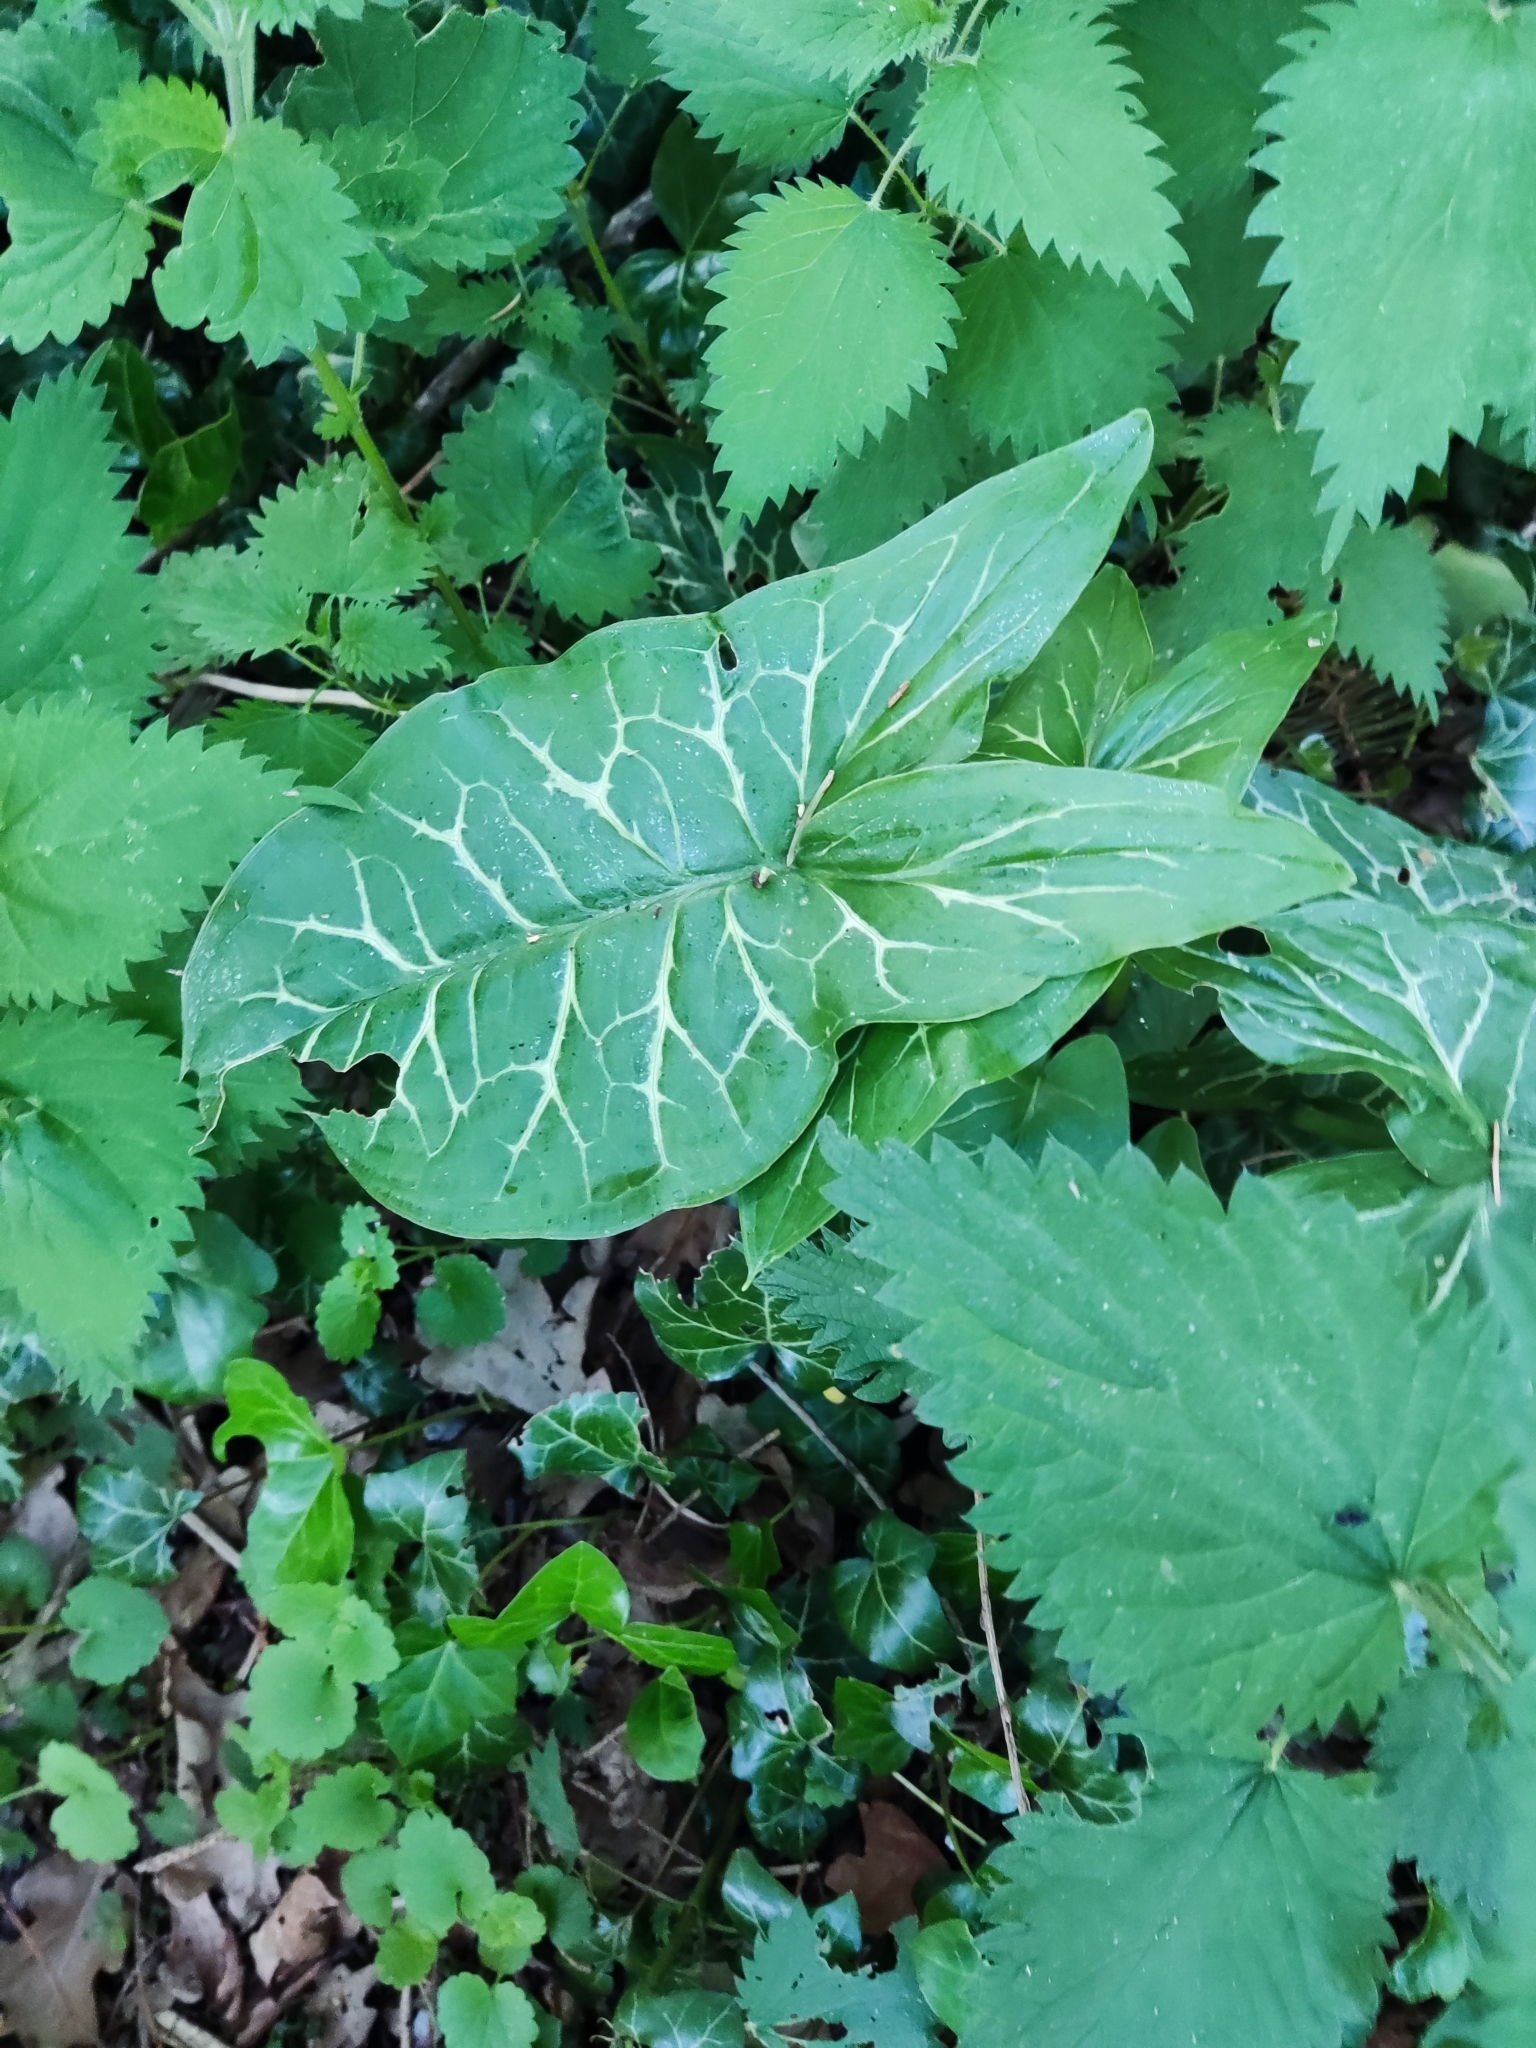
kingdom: Plantae
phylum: Tracheophyta
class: Liliopsida
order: Alismatales
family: Araceae
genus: Arum
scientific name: Arum italicum
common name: Italian lords-and-ladies
